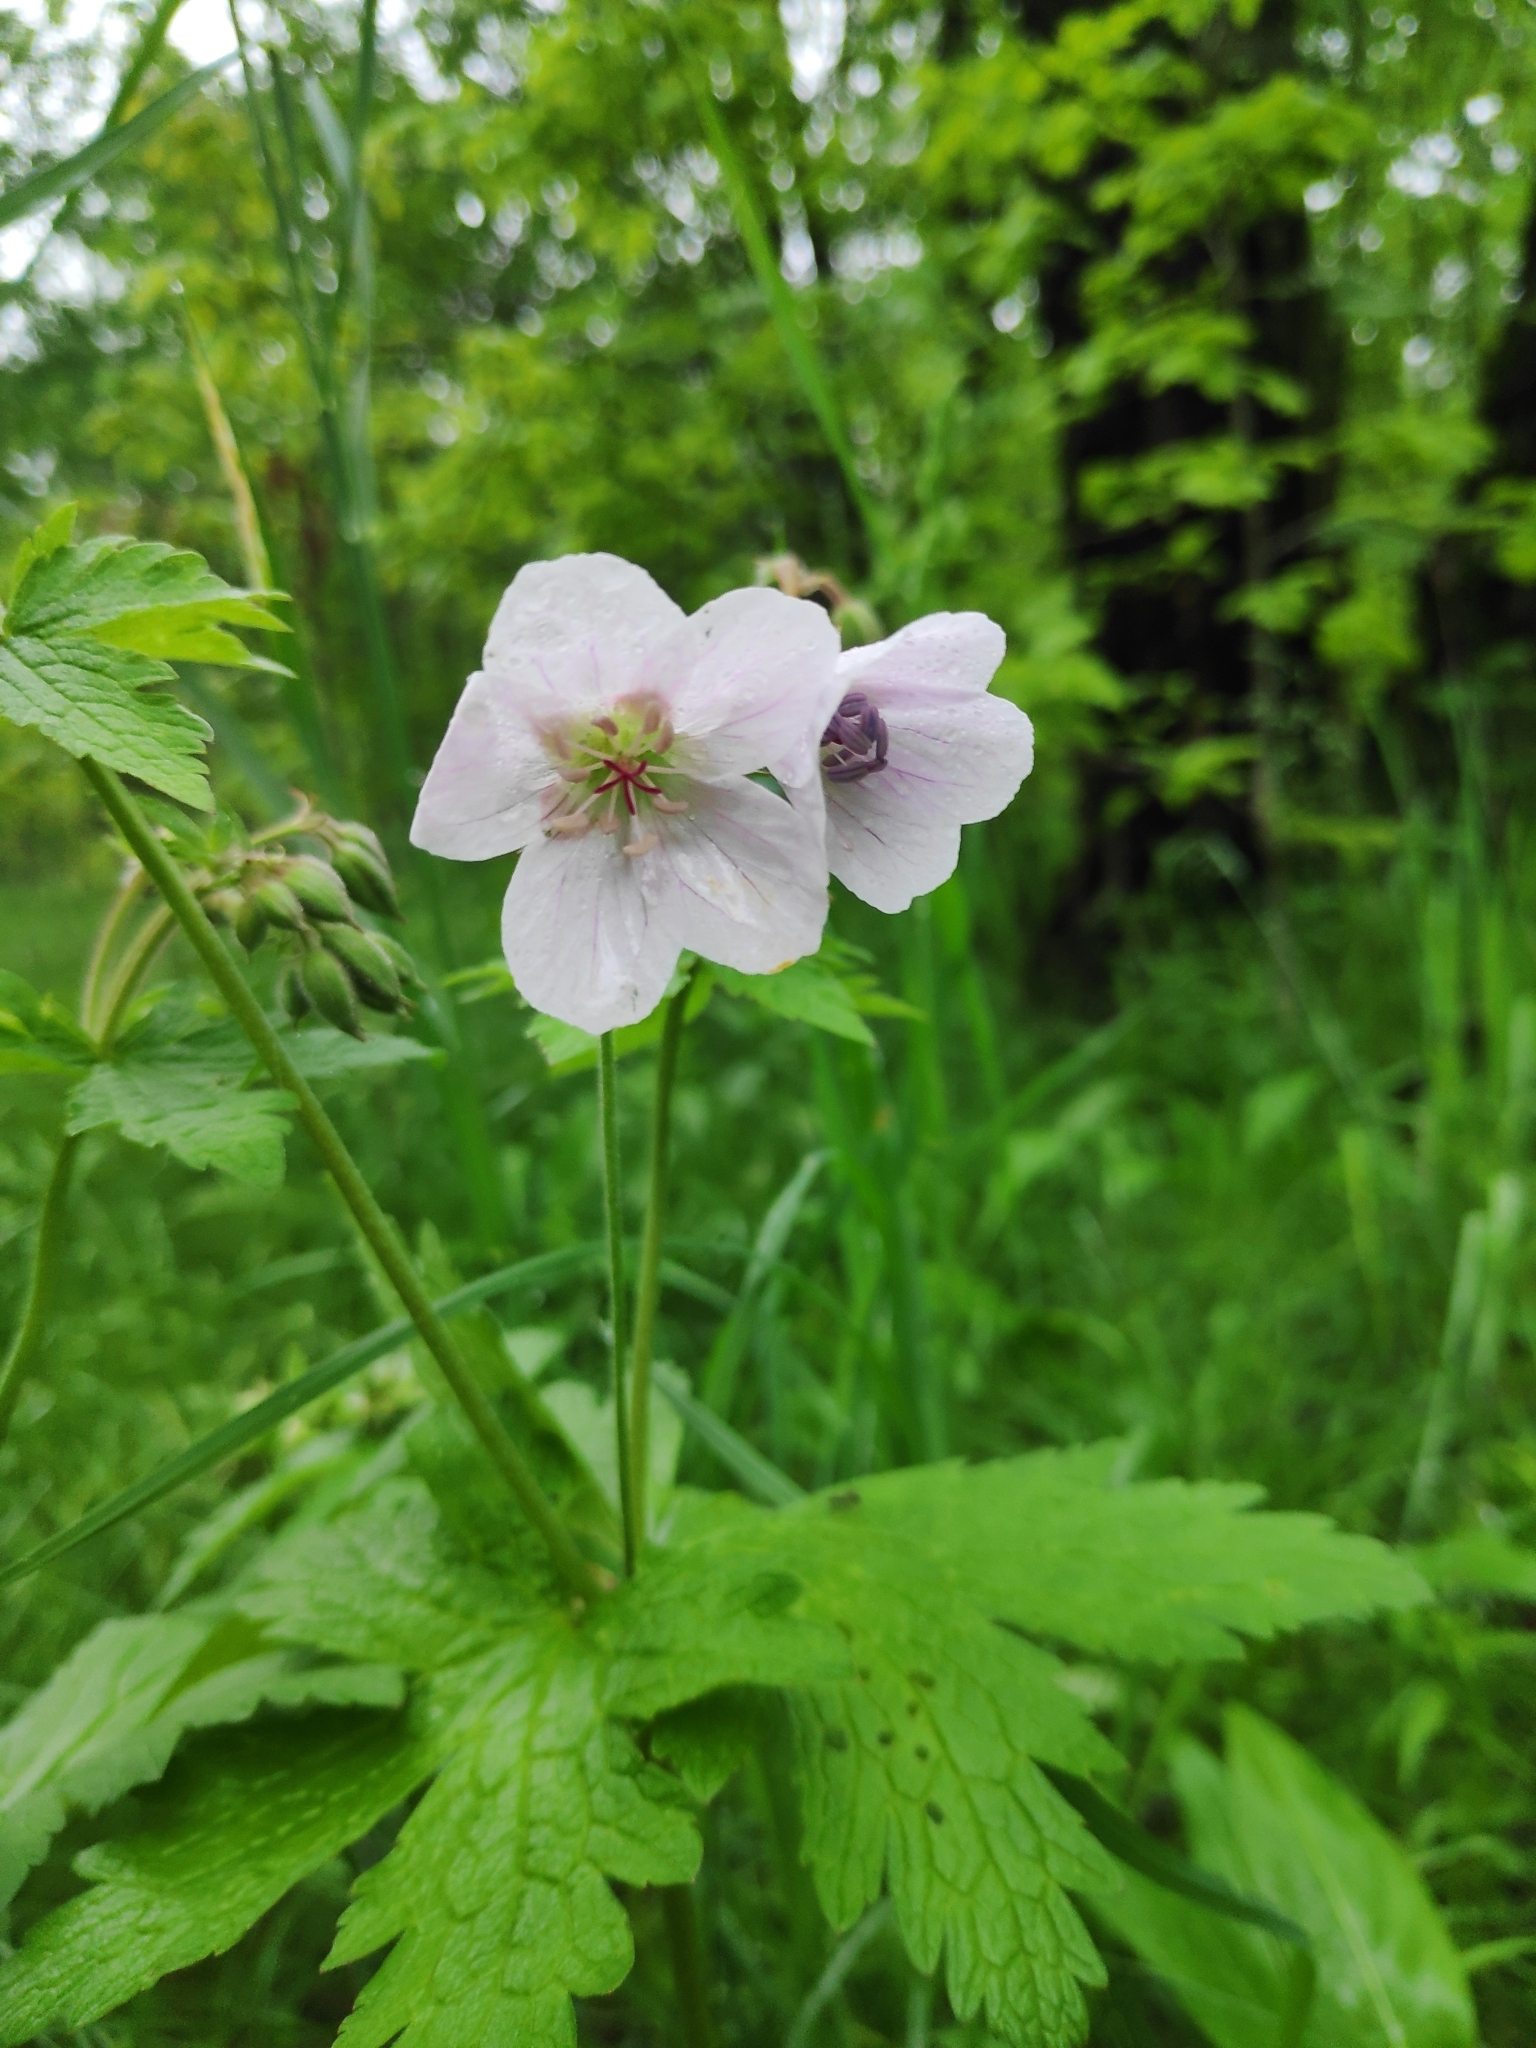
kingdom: Plantae
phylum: Tracheophyta
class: Magnoliopsida
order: Geraniales
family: Geraniaceae
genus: Geranium
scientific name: Geranium sylvaticum
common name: Wood crane's-bill
